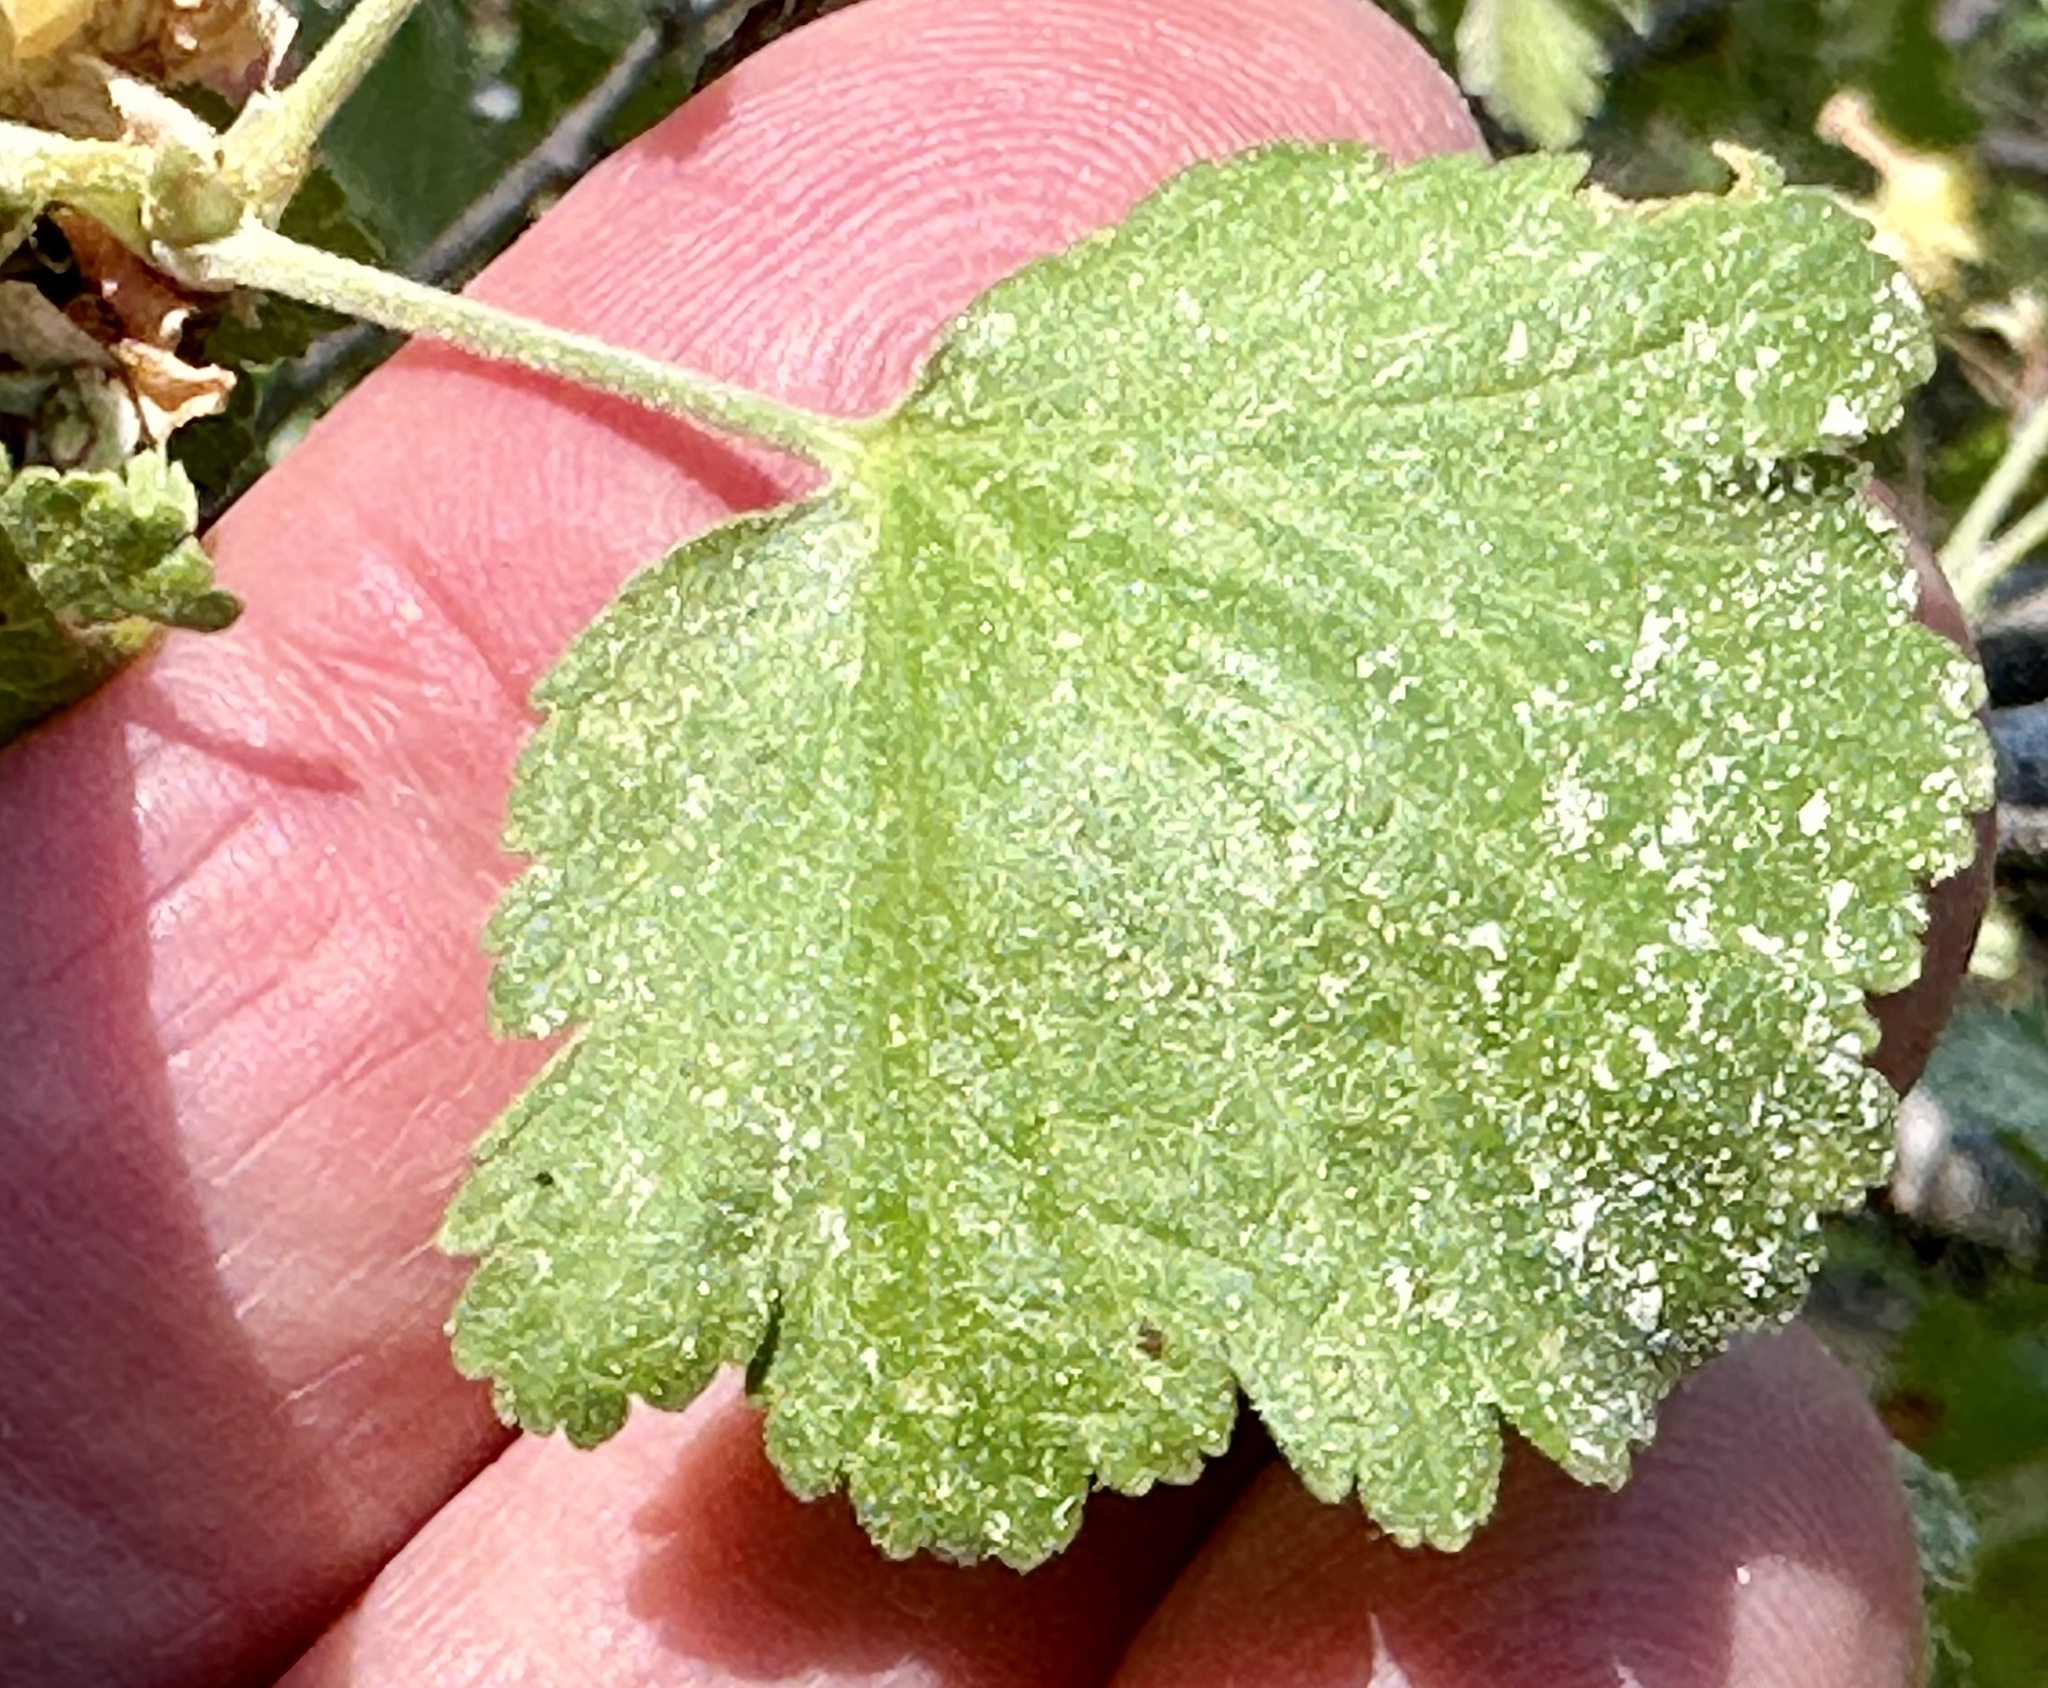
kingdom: Plantae
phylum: Tracheophyta
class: Magnoliopsida
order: Saxifragales
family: Grossulariaceae
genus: Ribes
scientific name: Ribes cereum
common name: Wax currant
